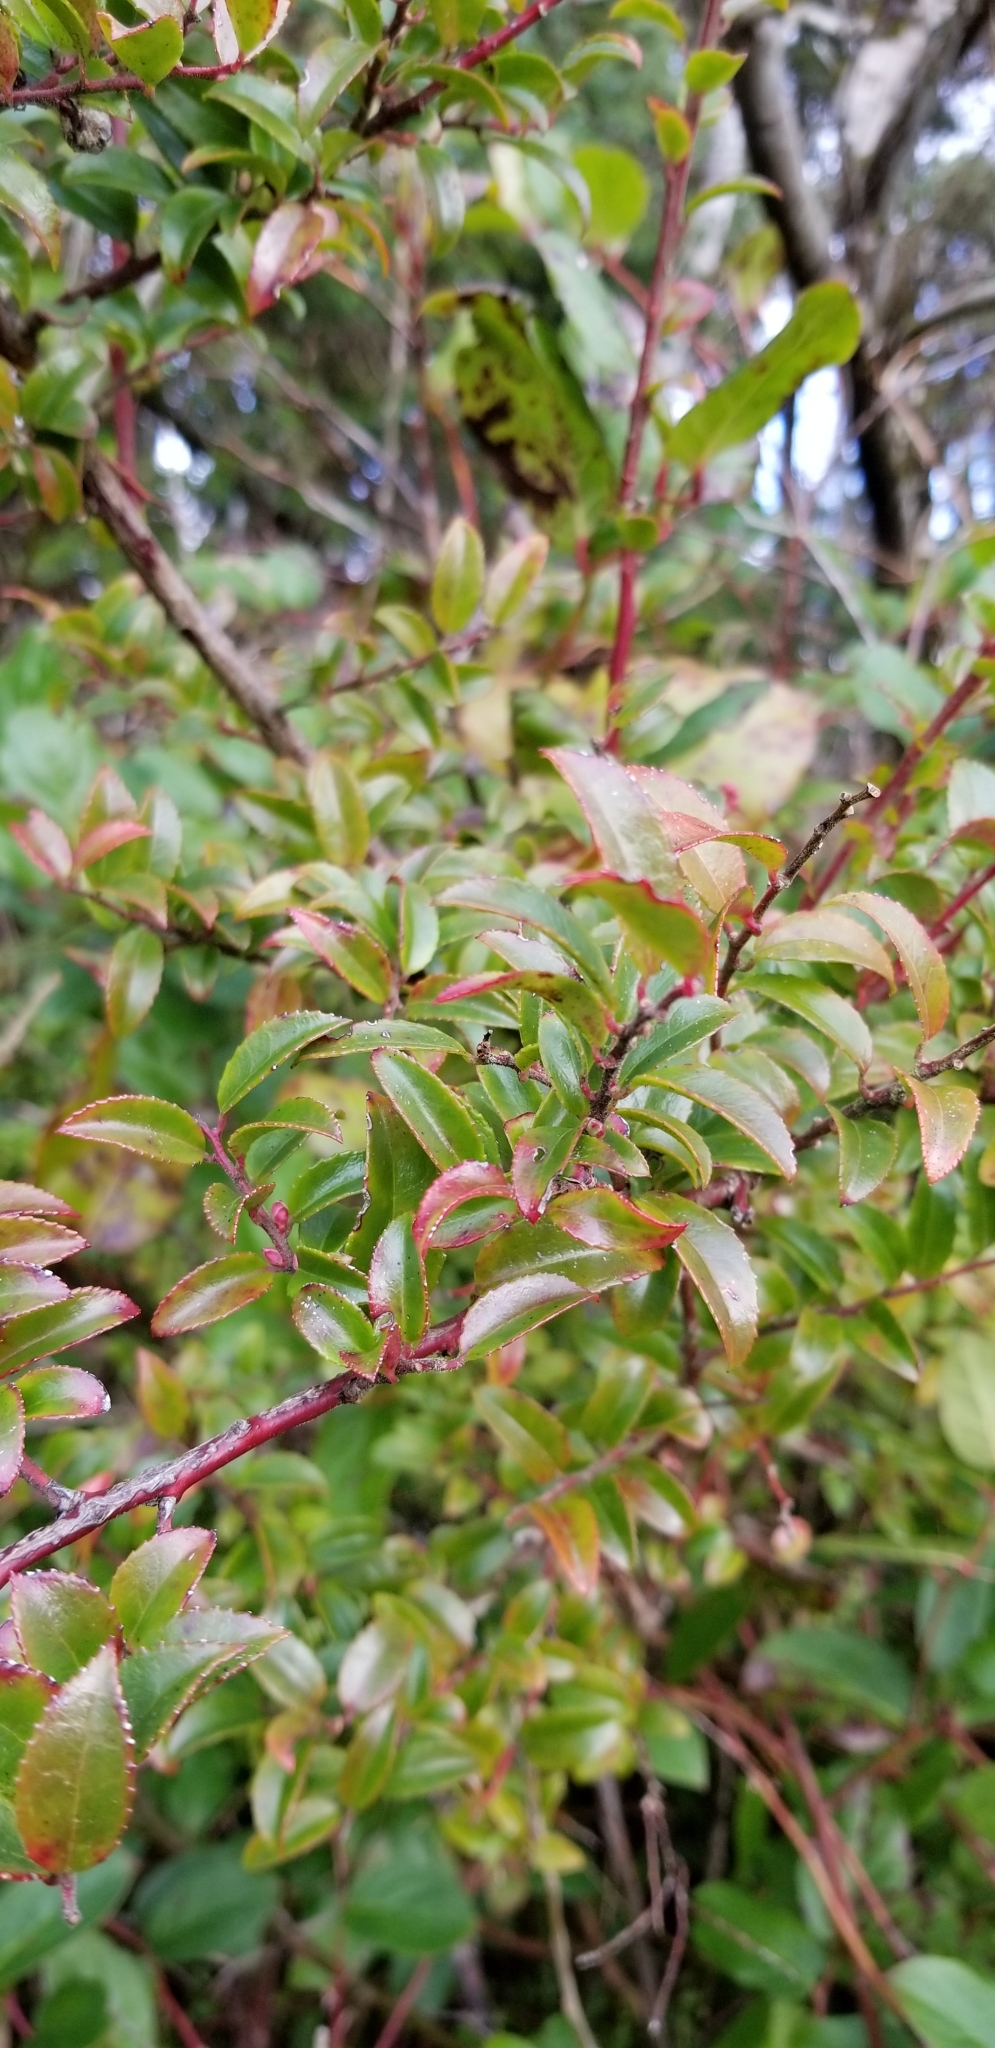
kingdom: Plantae
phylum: Tracheophyta
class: Magnoliopsida
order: Ericales
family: Ericaceae
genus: Vaccinium
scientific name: Vaccinium ovatum
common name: California-huckleberry
